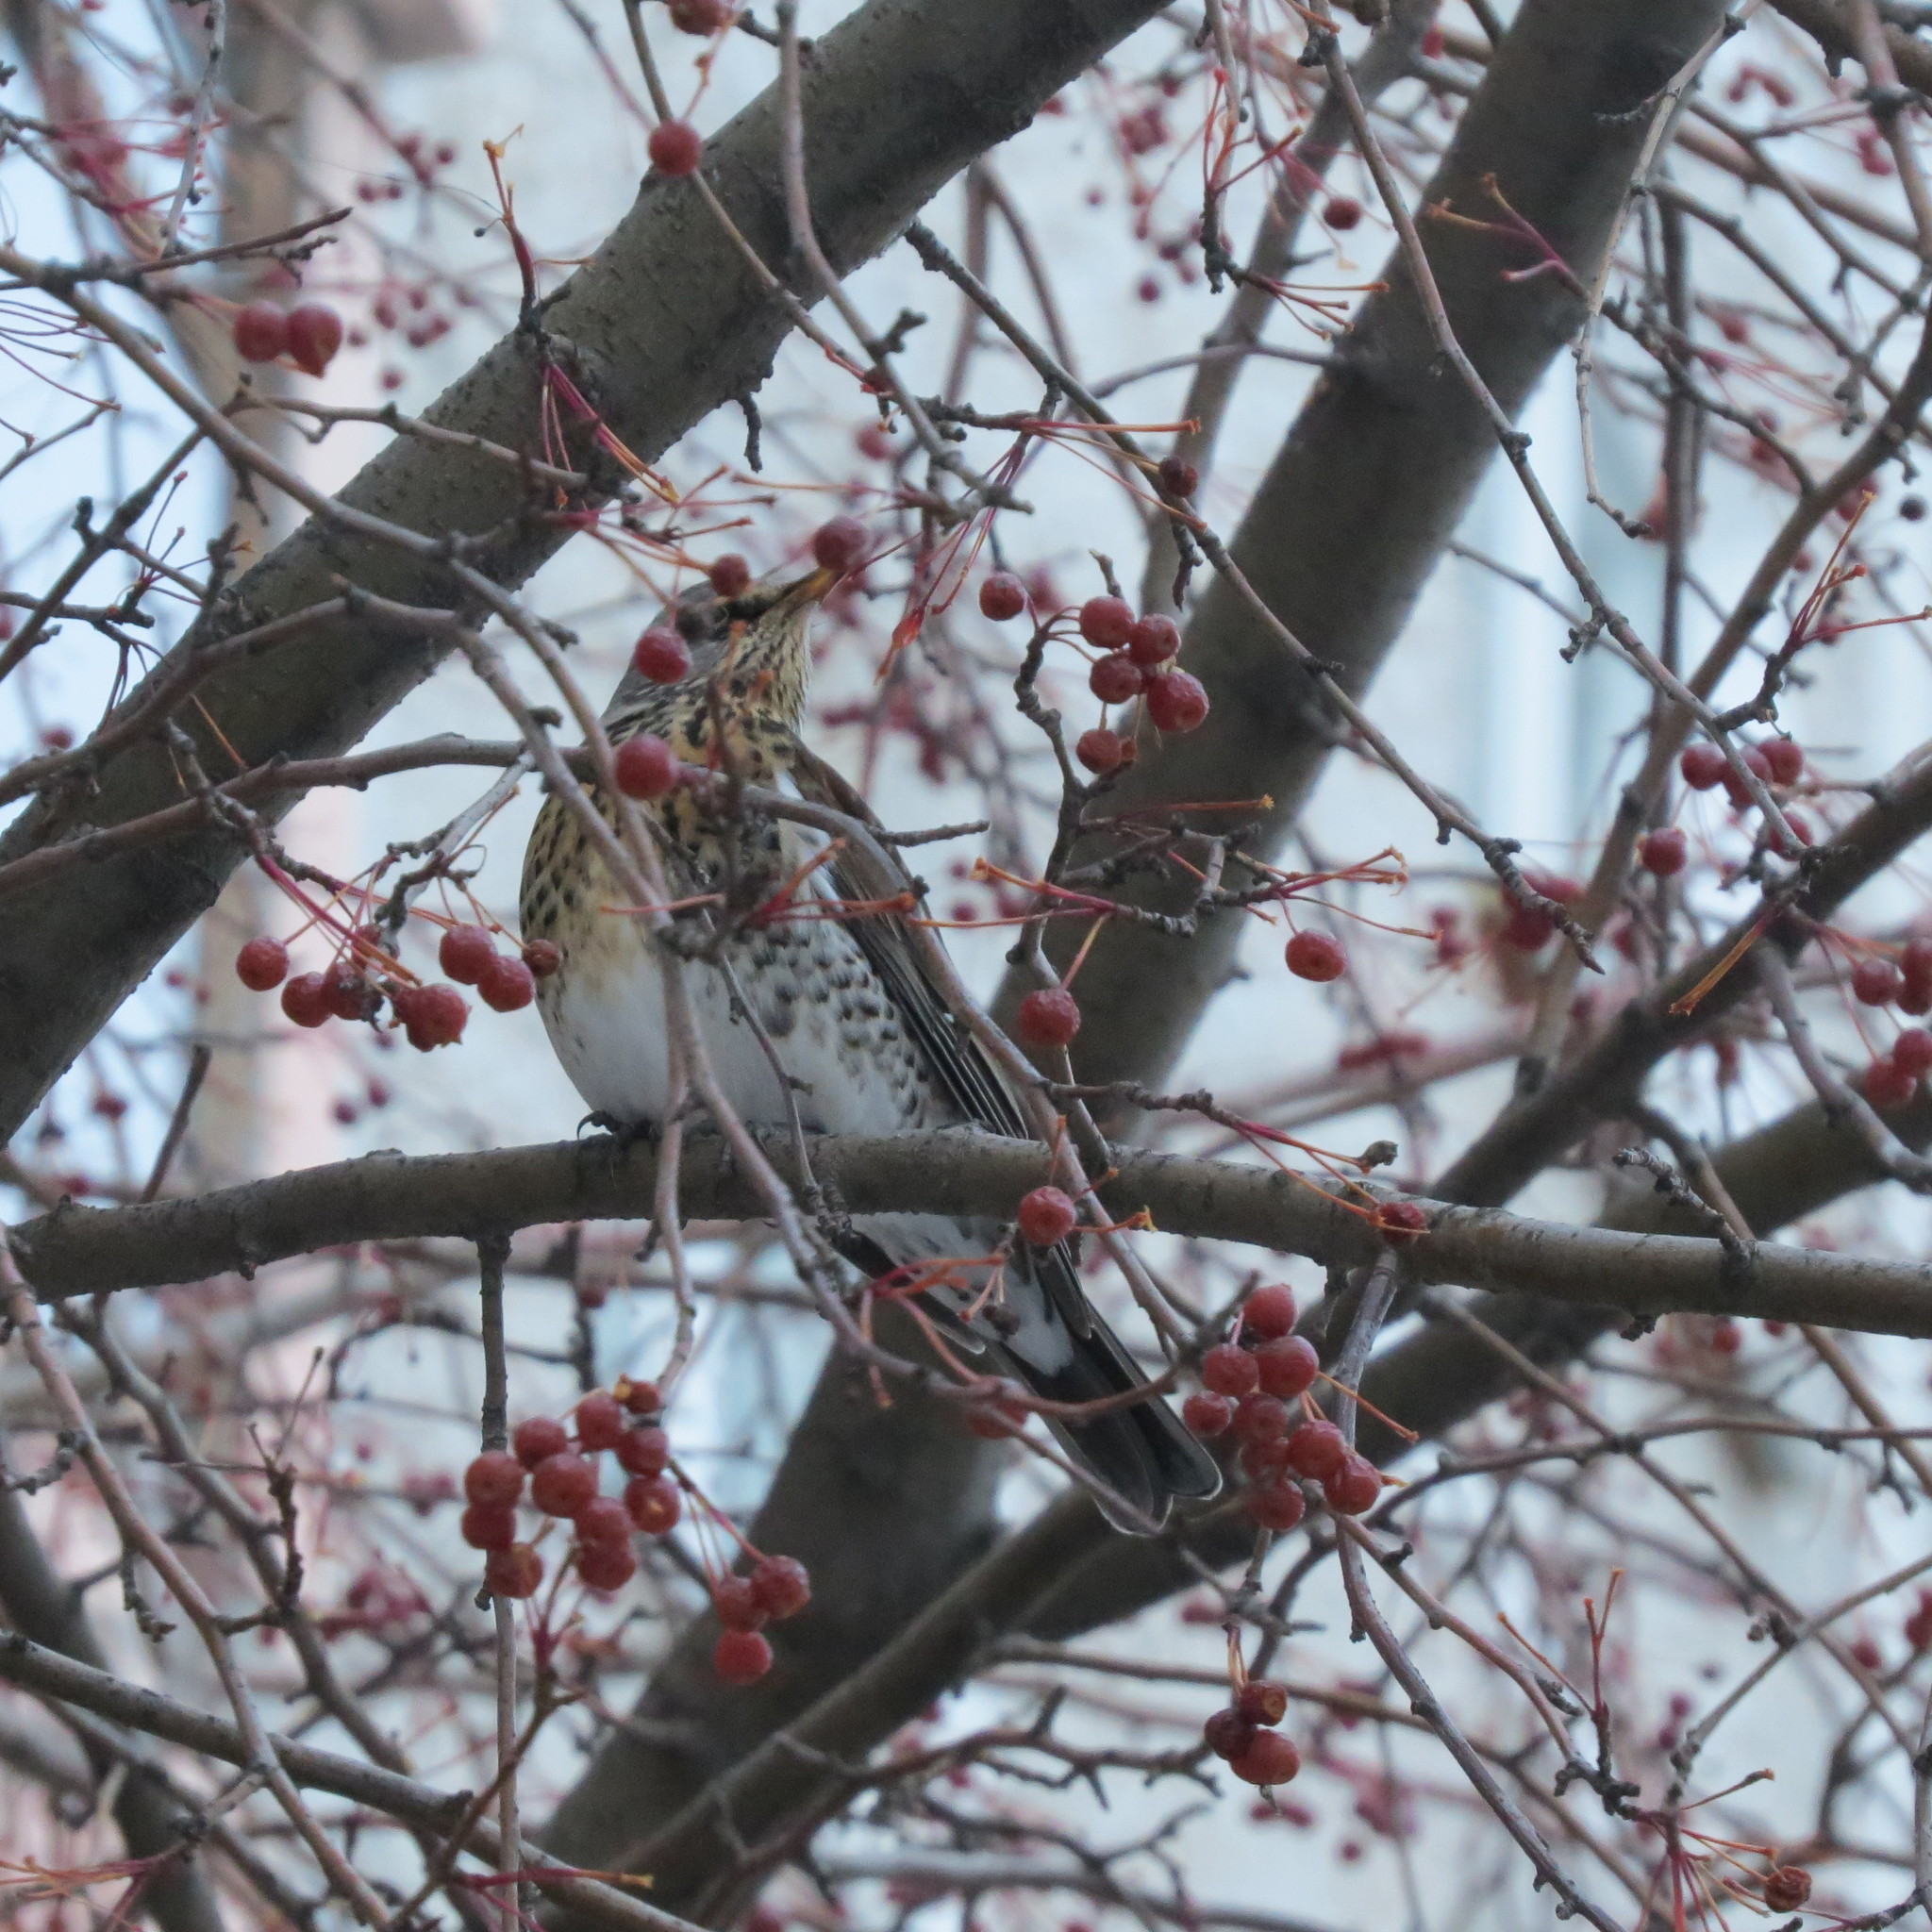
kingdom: Animalia
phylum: Chordata
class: Aves
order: Passeriformes
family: Turdidae
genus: Turdus
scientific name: Turdus pilaris
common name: Fieldfare
